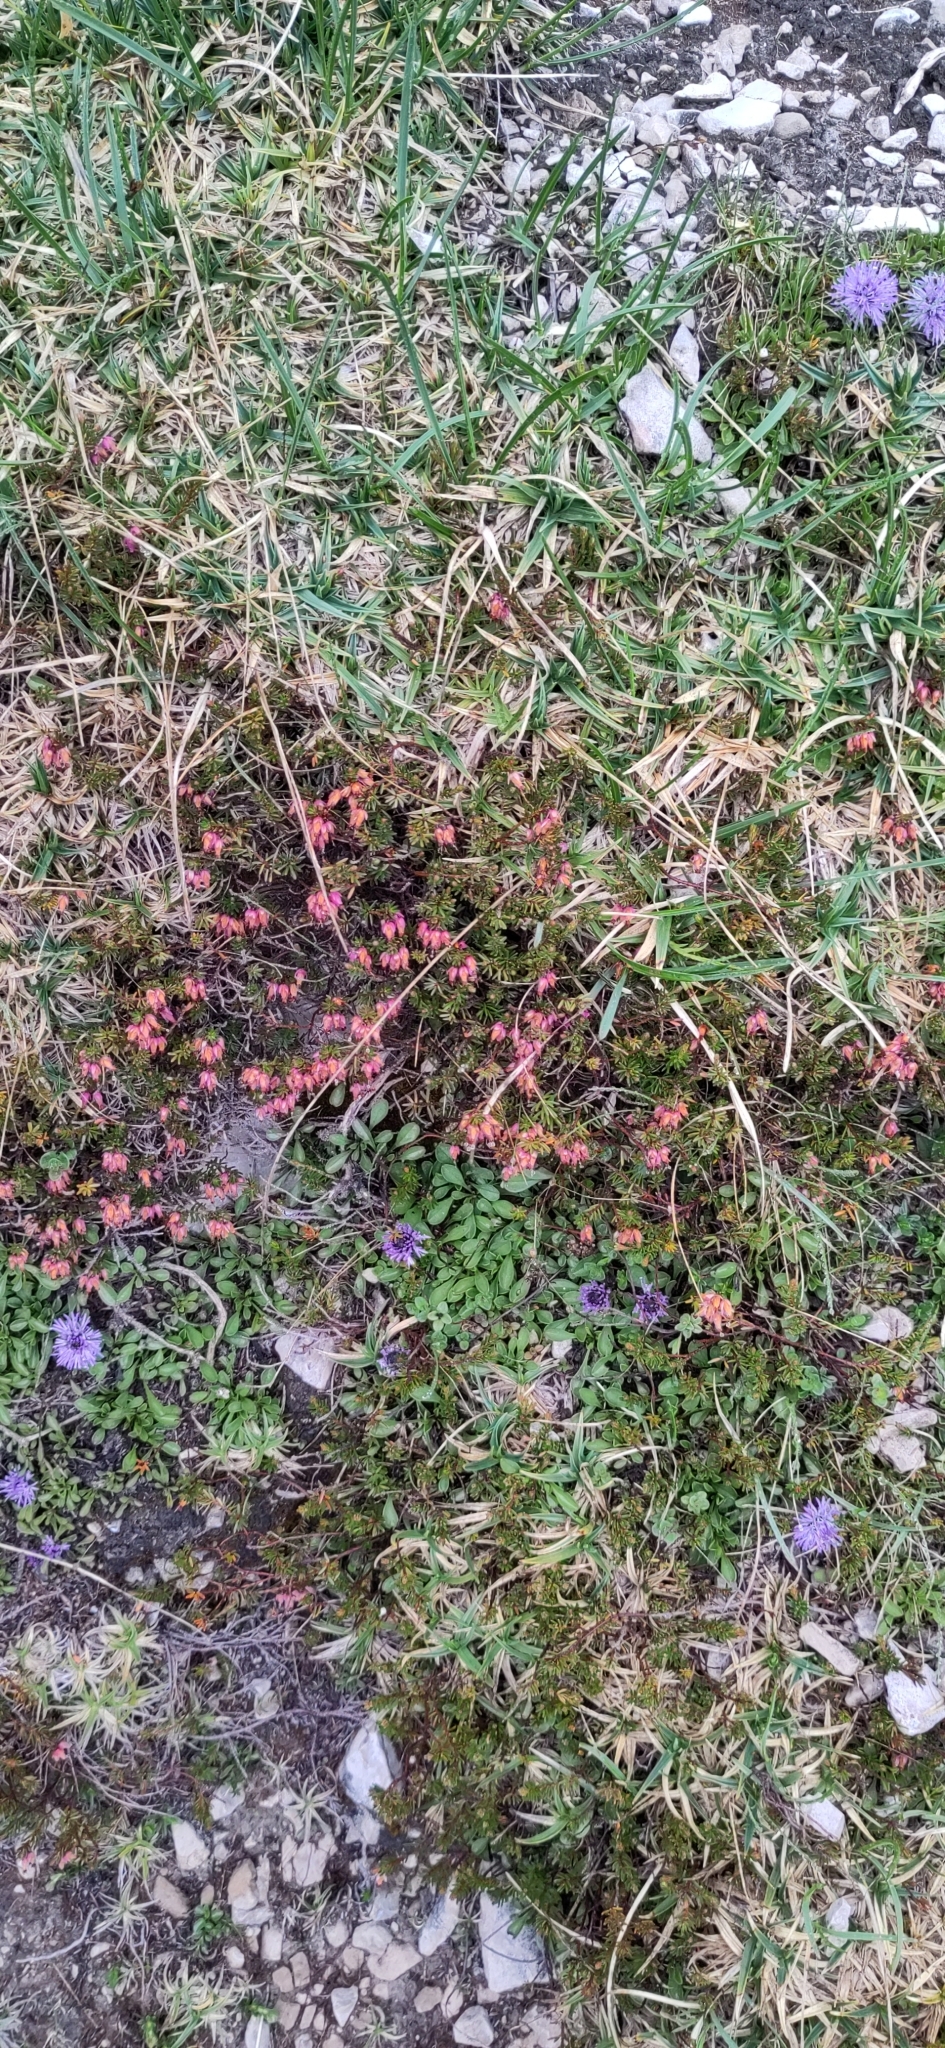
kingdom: Plantae
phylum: Tracheophyta
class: Magnoliopsida
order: Ericales
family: Ericaceae
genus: Erica
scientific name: Erica carnea
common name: Winter heath
